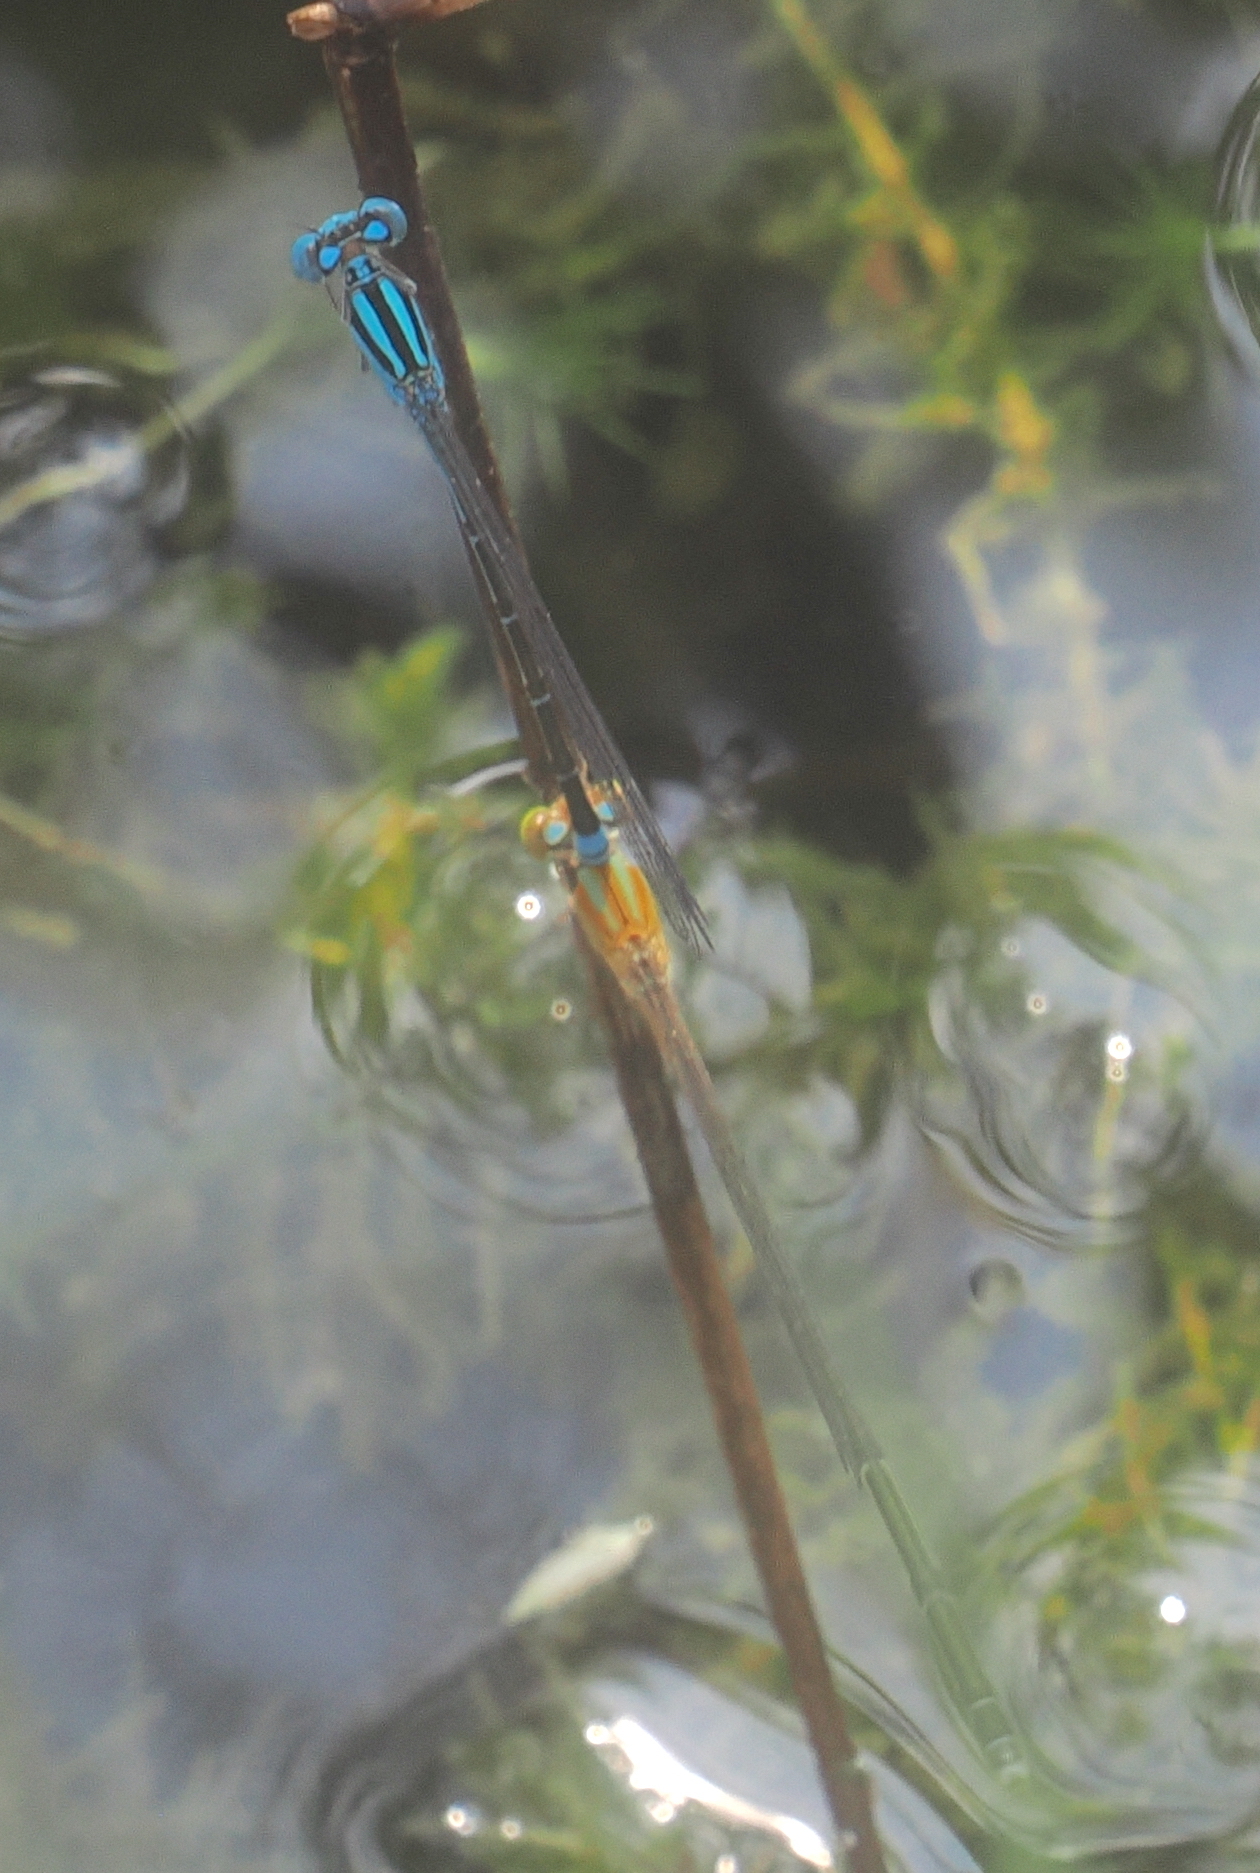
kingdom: Animalia
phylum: Arthropoda
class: Insecta
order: Odonata
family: Coenagrionidae
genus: Pseudagrion
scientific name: Pseudagrion microcephalum
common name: Blue riverdamsel
